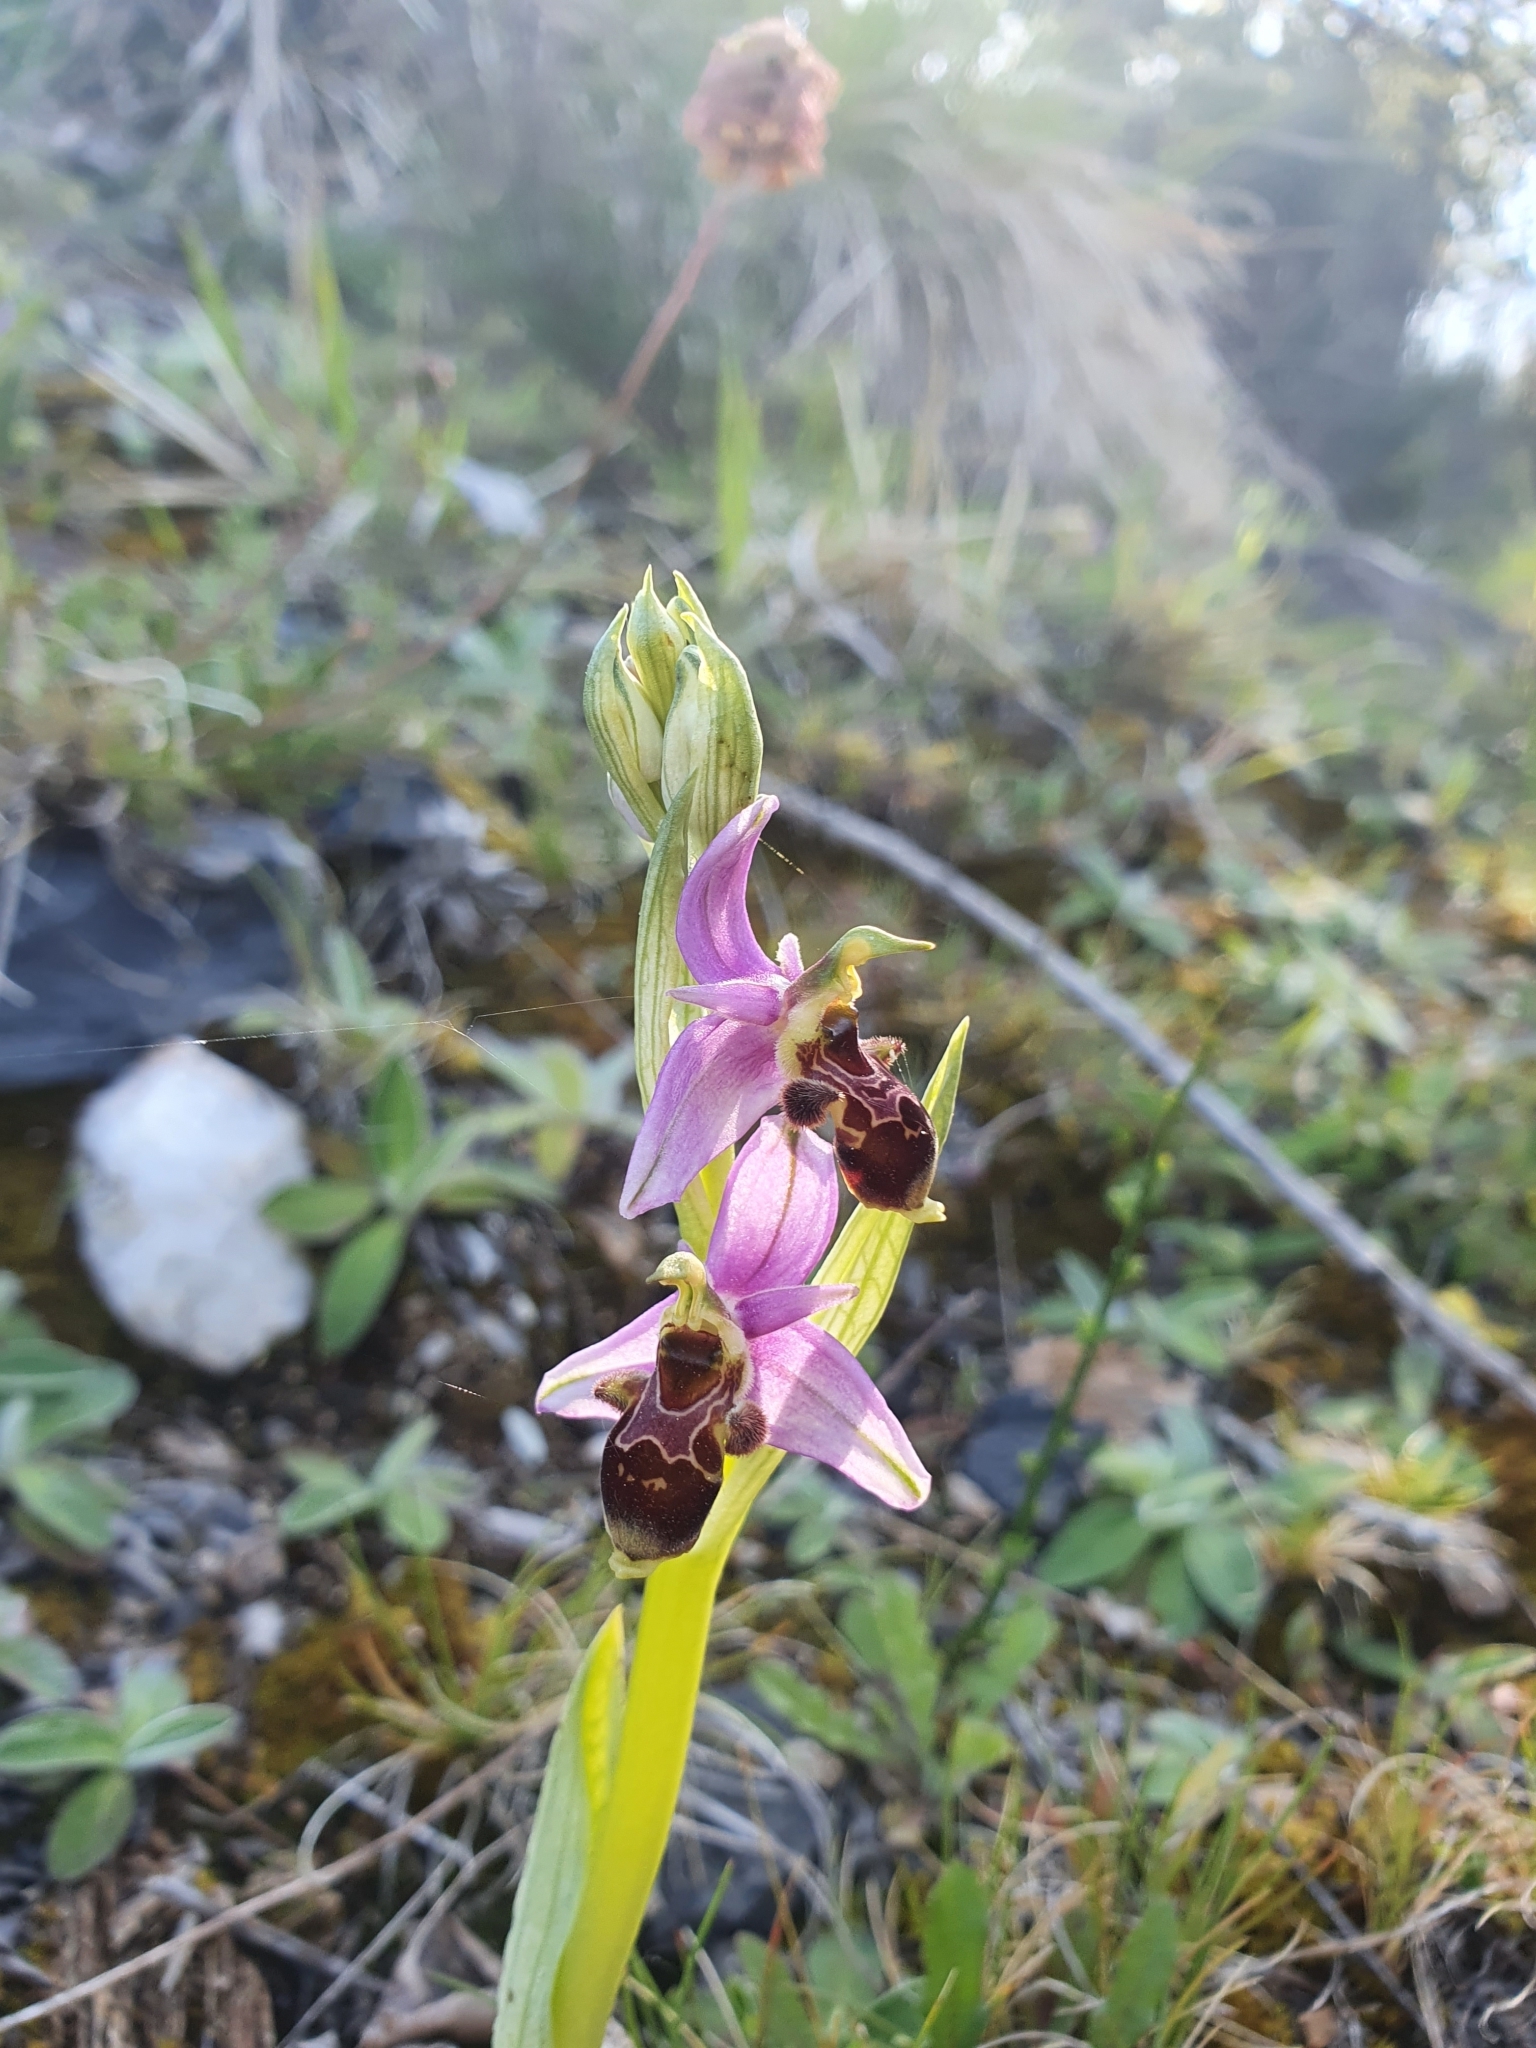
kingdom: Plantae
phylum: Tracheophyta
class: Liliopsida
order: Asparagales
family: Orchidaceae
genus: Ophrys
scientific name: Ophrys scolopax
